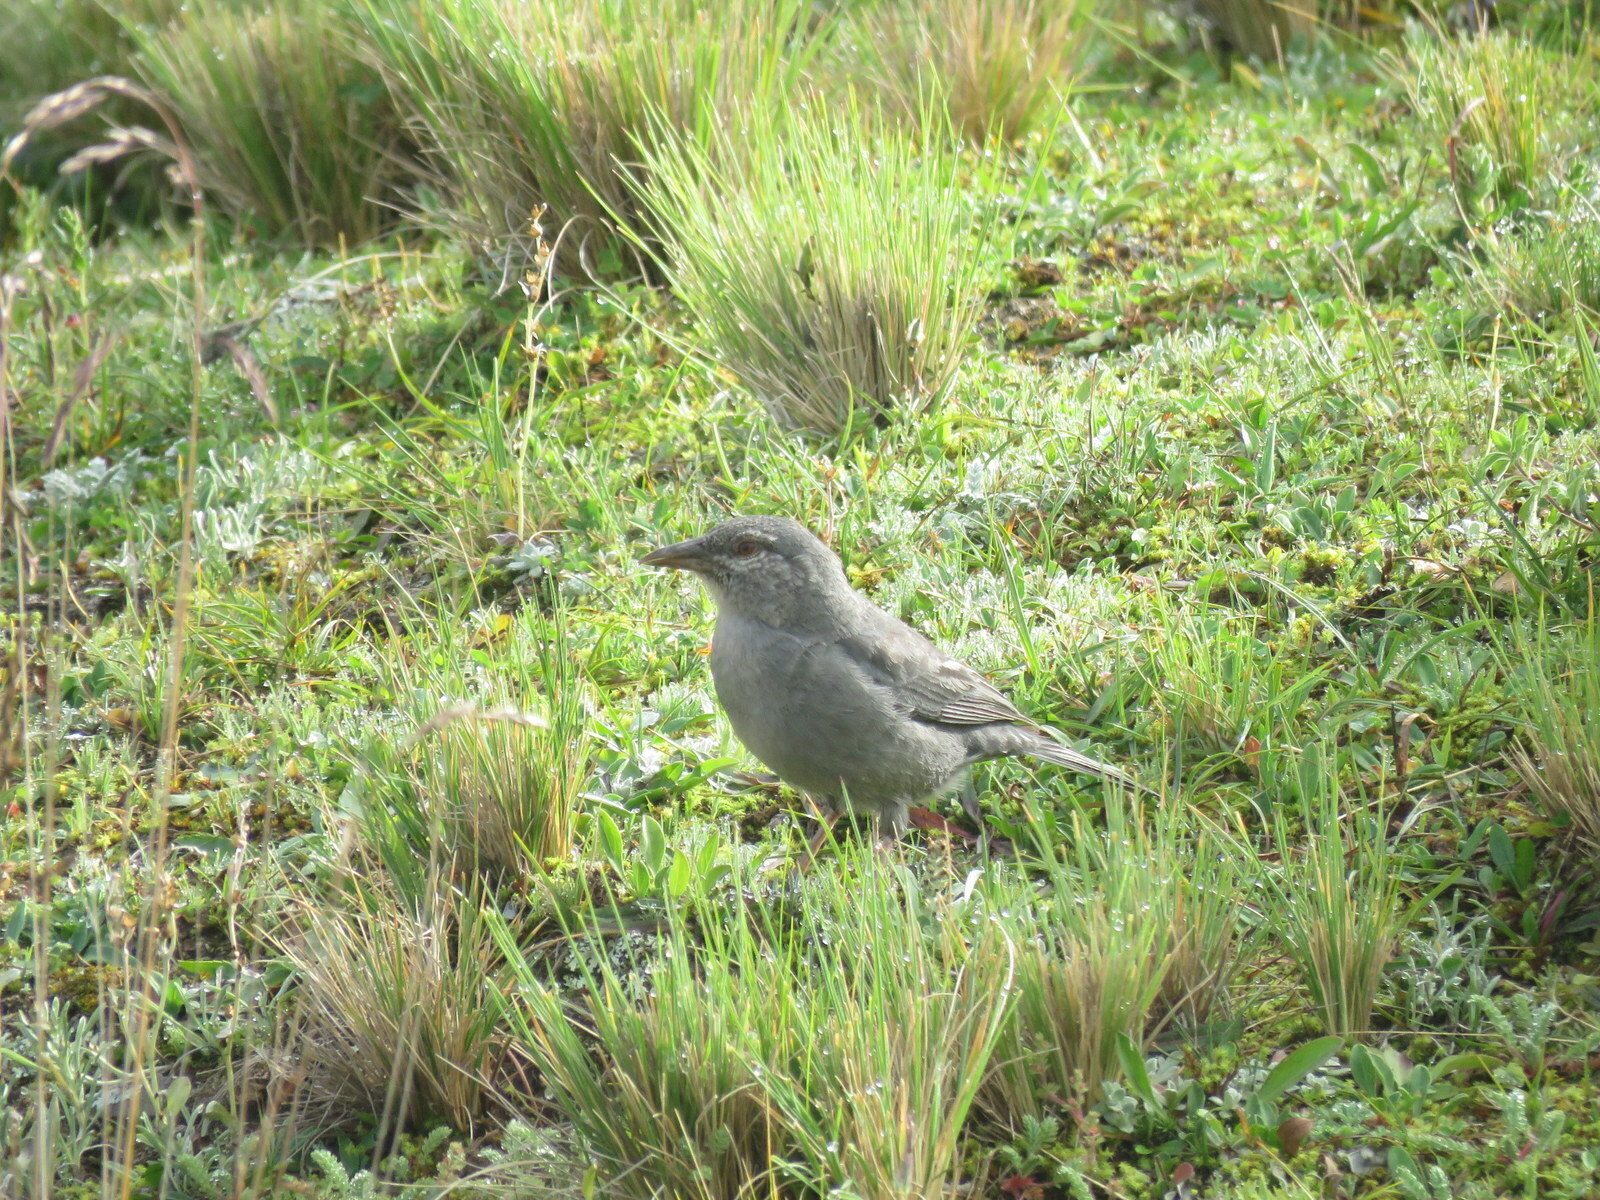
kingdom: Animalia
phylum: Chordata
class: Aves
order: Passeriformes
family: Thraupidae
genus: Idiopsar
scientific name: Idiopsar brachyurus
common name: Short-tailed finch
